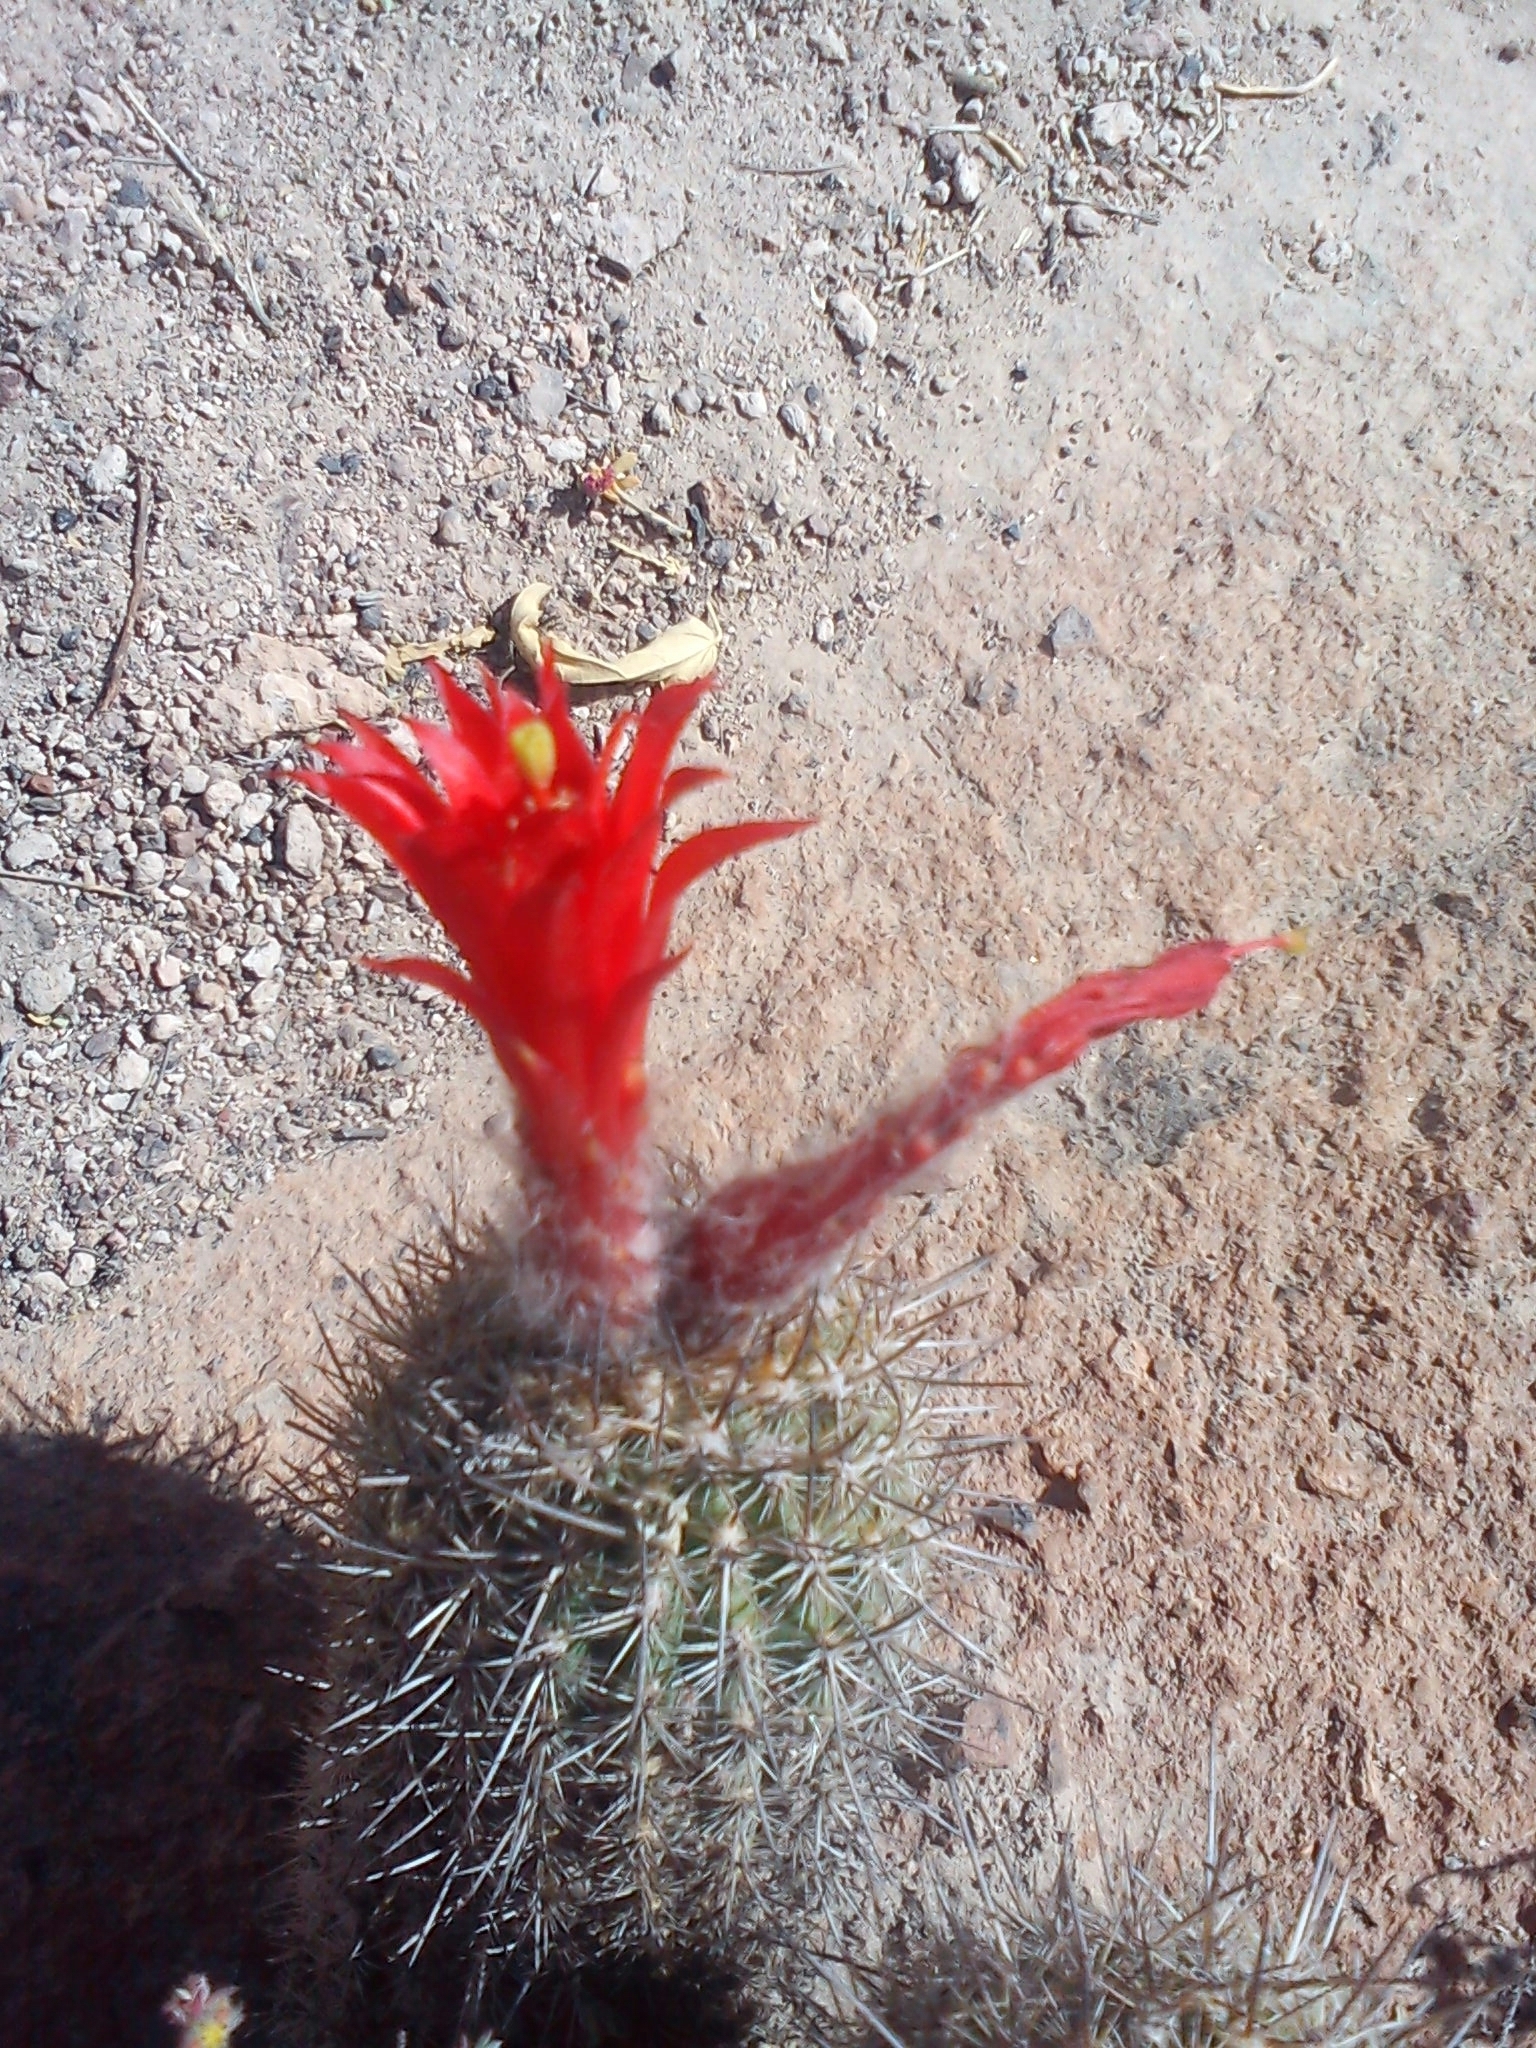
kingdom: Plantae
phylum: Tracheophyta
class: Magnoliopsida
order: Caryophyllales
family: Cactaceae
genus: Oreocereus
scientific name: Oreocereus hempelianus
